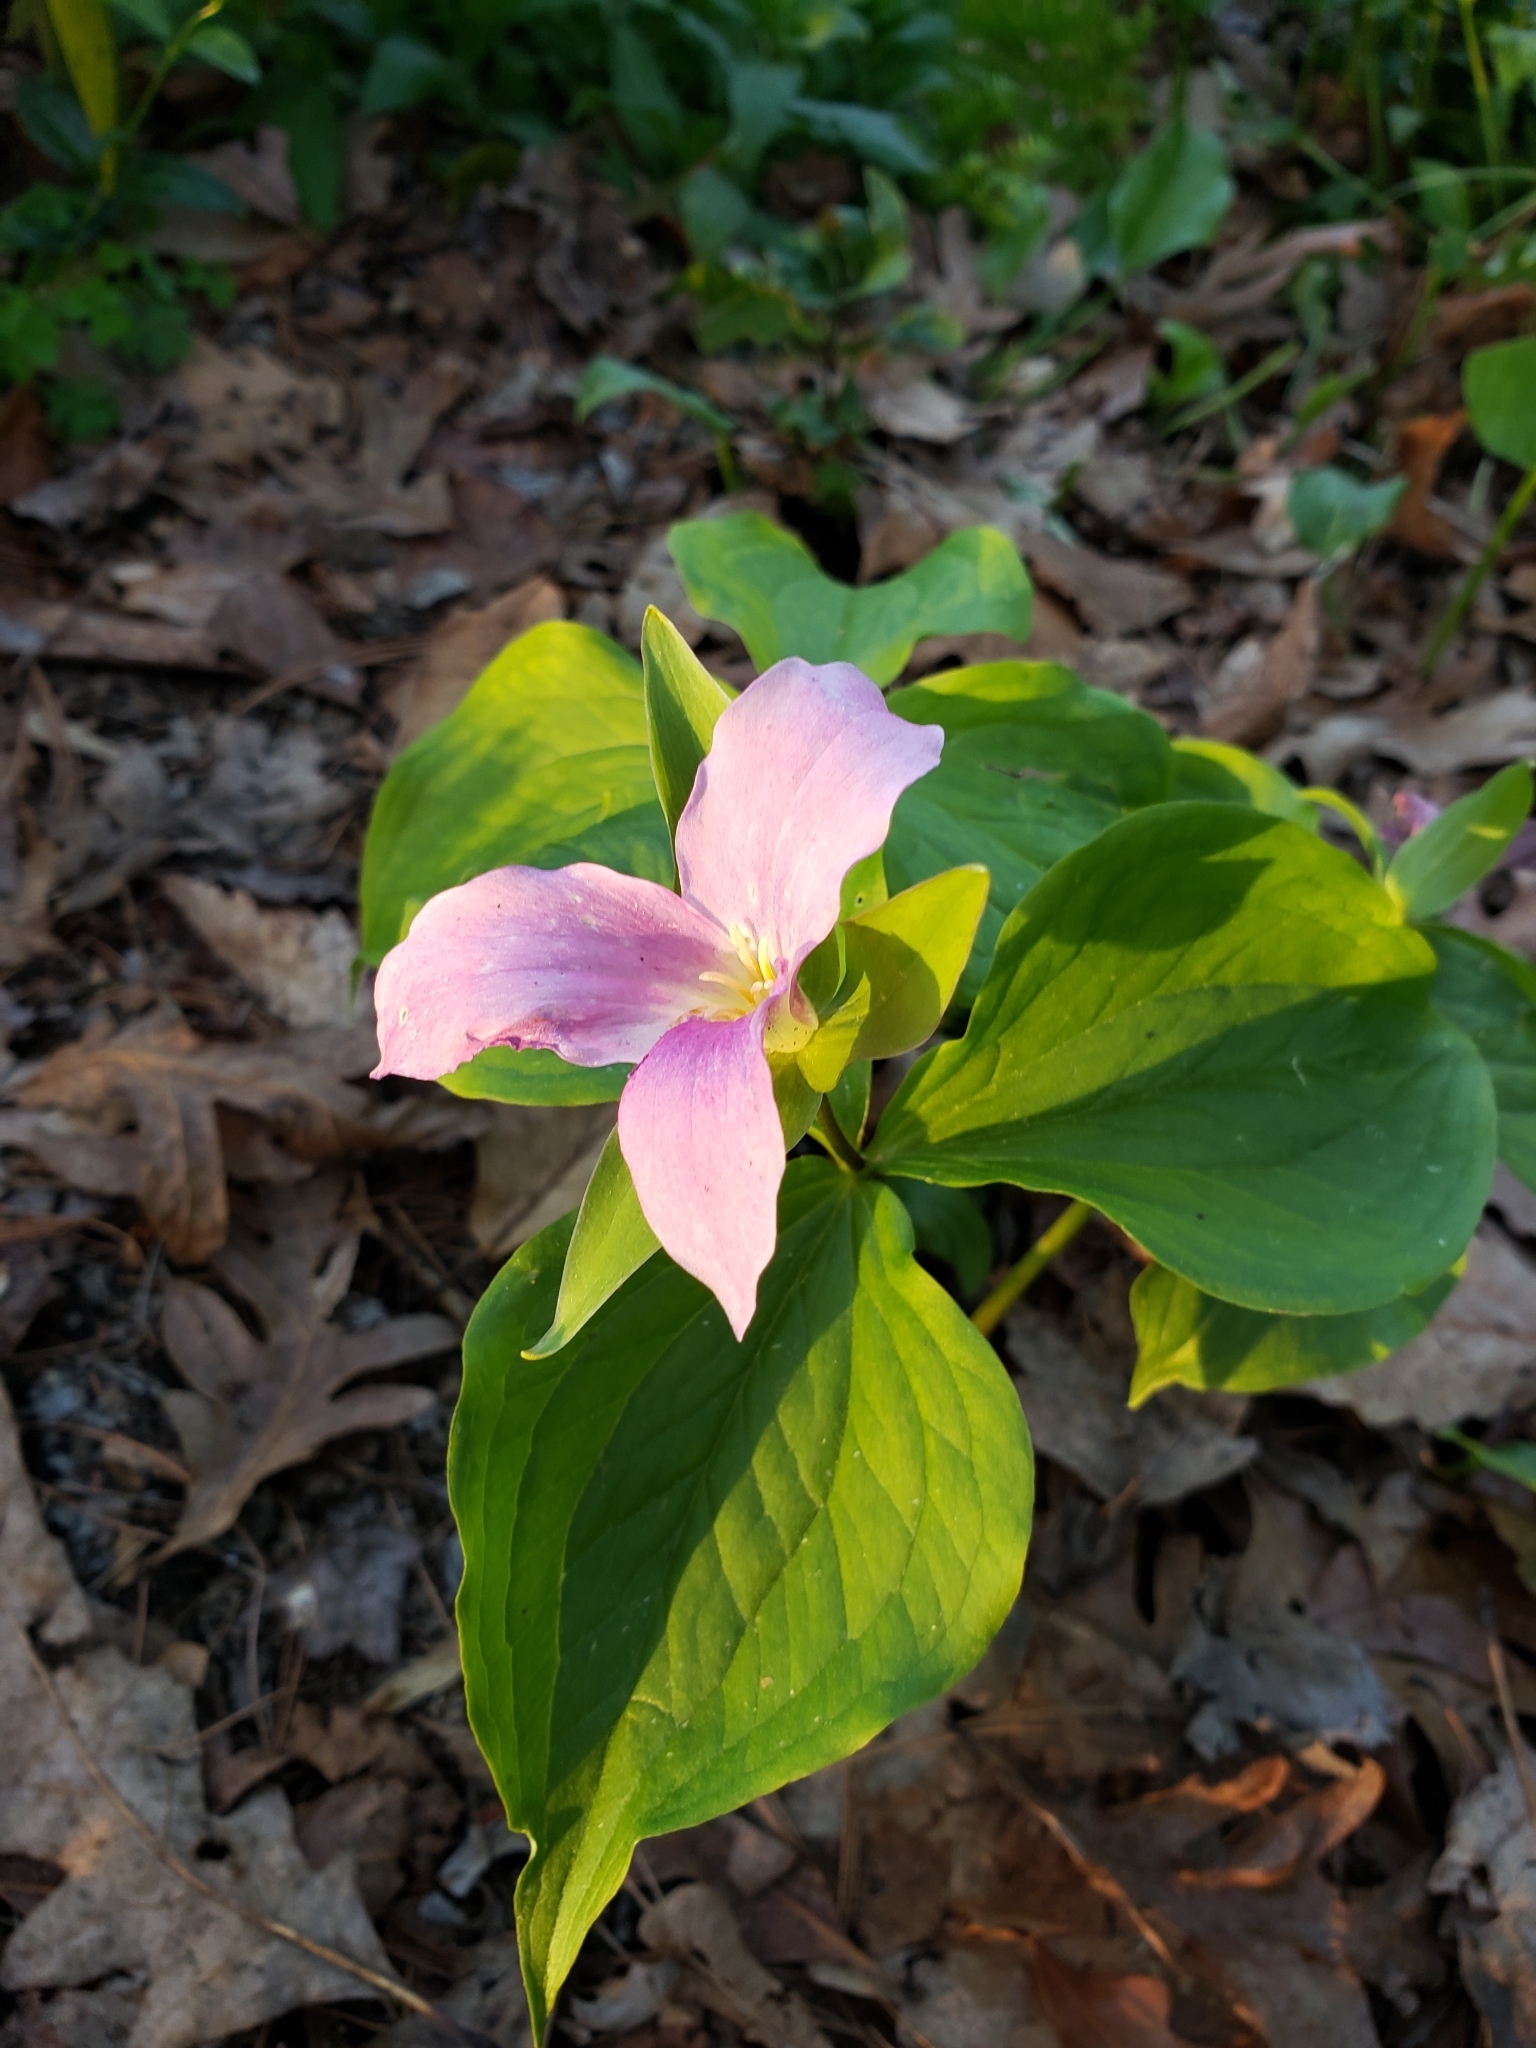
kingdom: Plantae
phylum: Tracheophyta
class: Liliopsida
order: Liliales
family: Melanthiaceae
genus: Trillium
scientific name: Trillium grandiflorum
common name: Great white trillium
